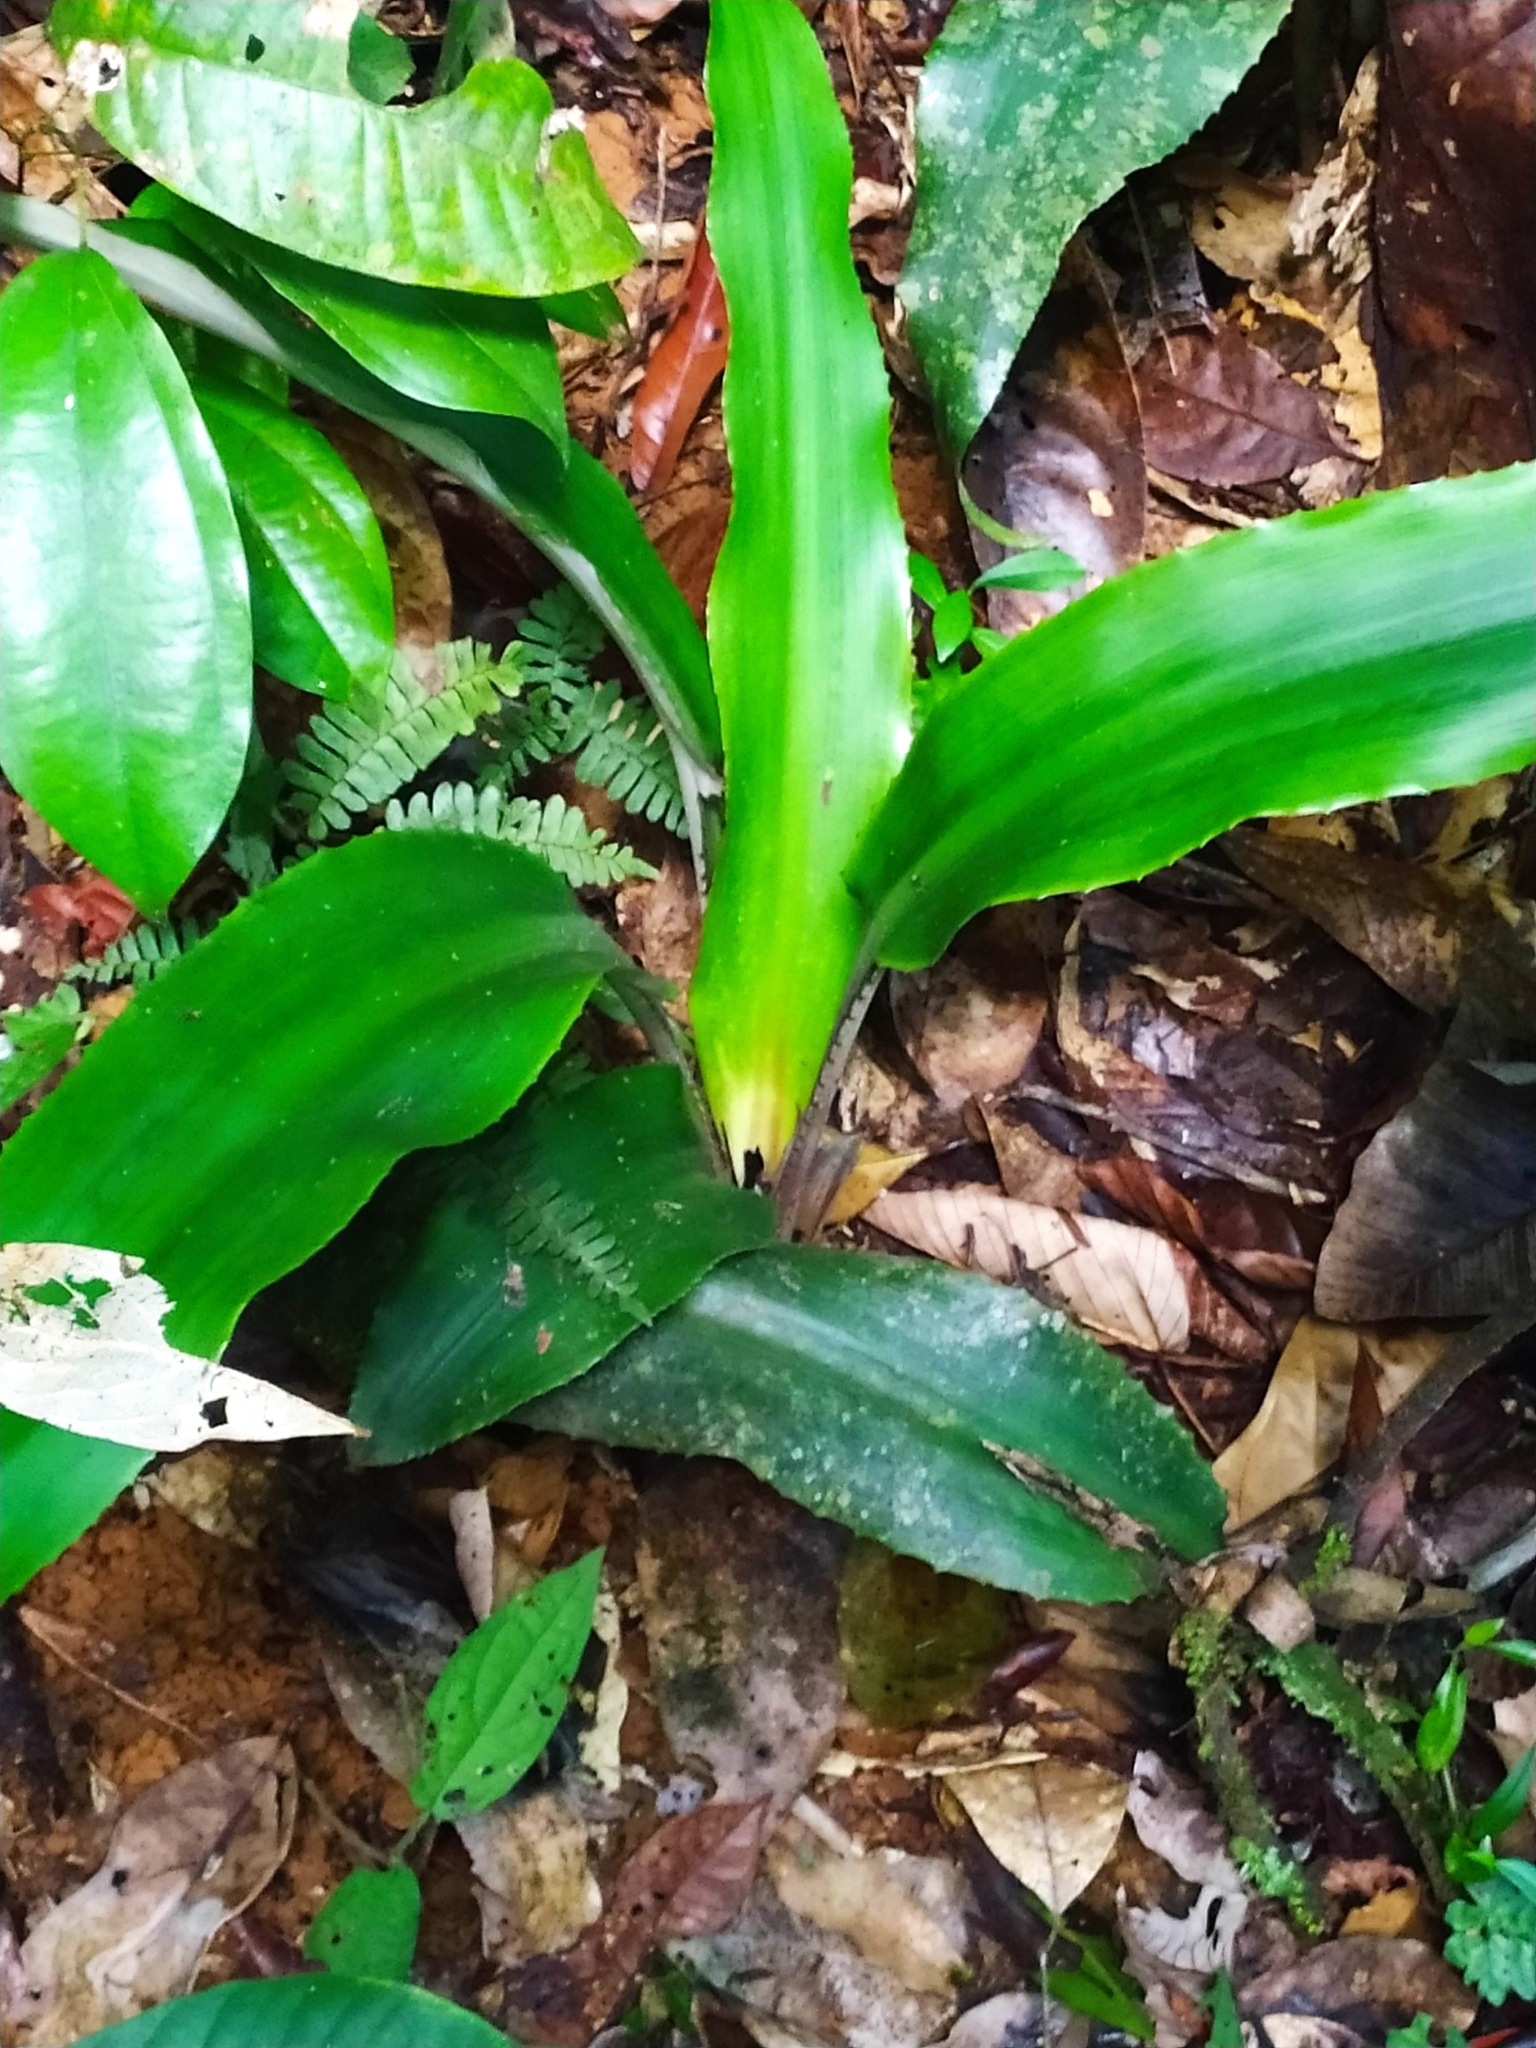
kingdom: Plantae
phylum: Tracheophyta
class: Liliopsida
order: Poales
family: Bromeliaceae
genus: Disteganthus
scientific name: Disteganthus basilateralis
